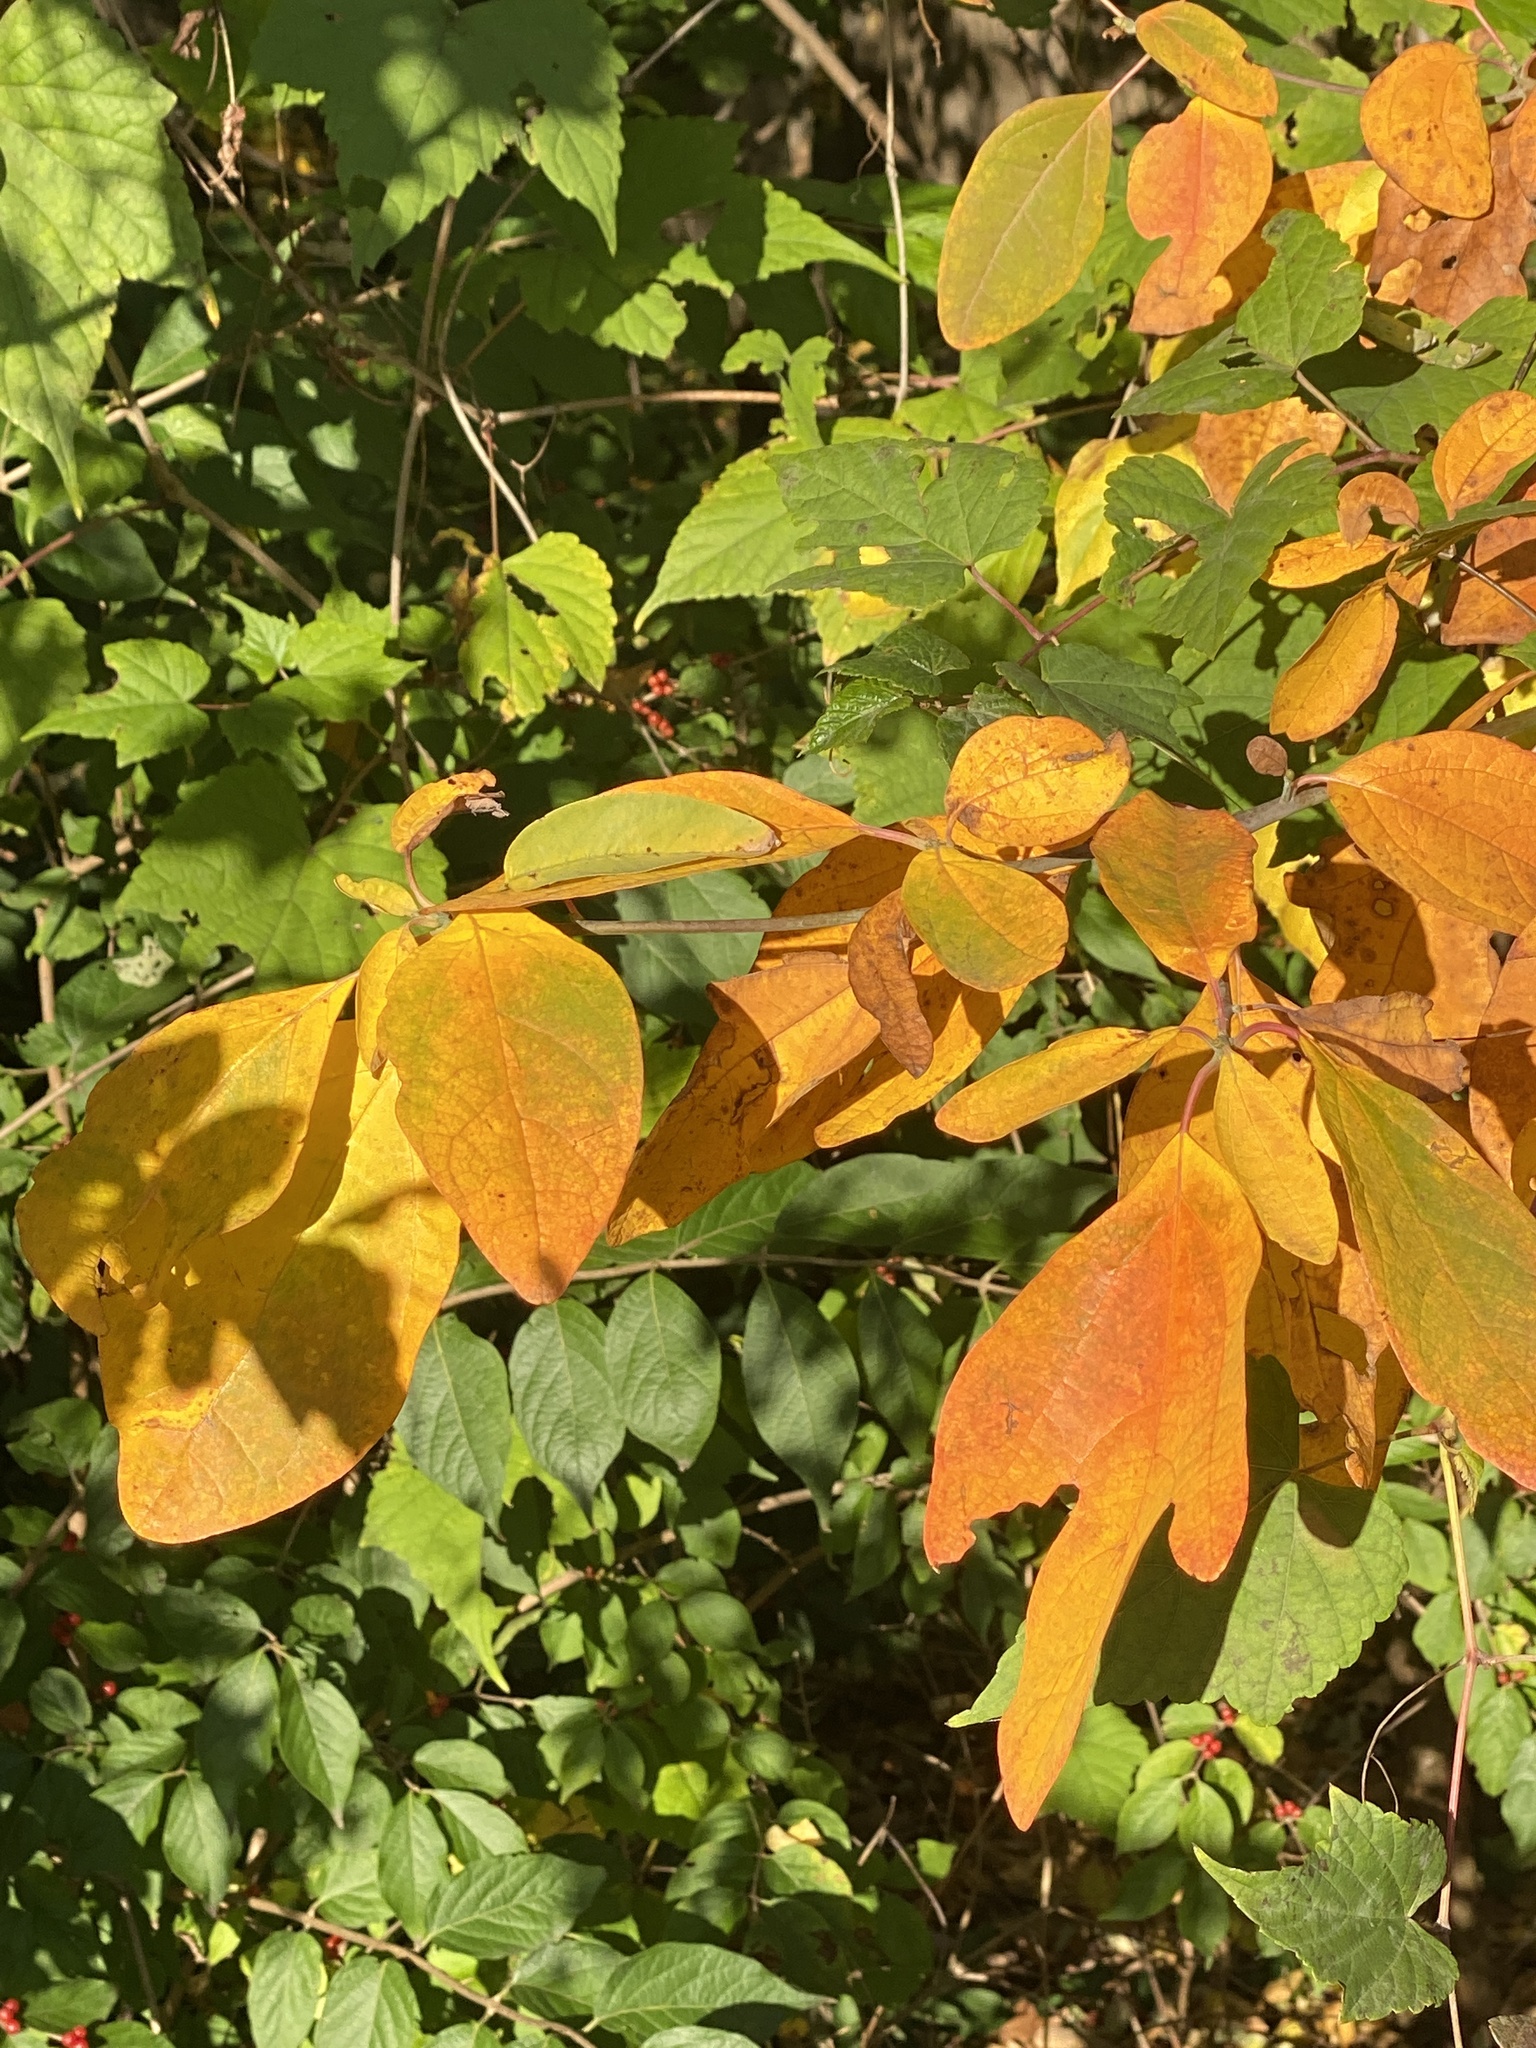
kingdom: Plantae
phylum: Tracheophyta
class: Magnoliopsida
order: Laurales
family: Lauraceae
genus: Sassafras
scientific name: Sassafras albidum
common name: Sassafras
